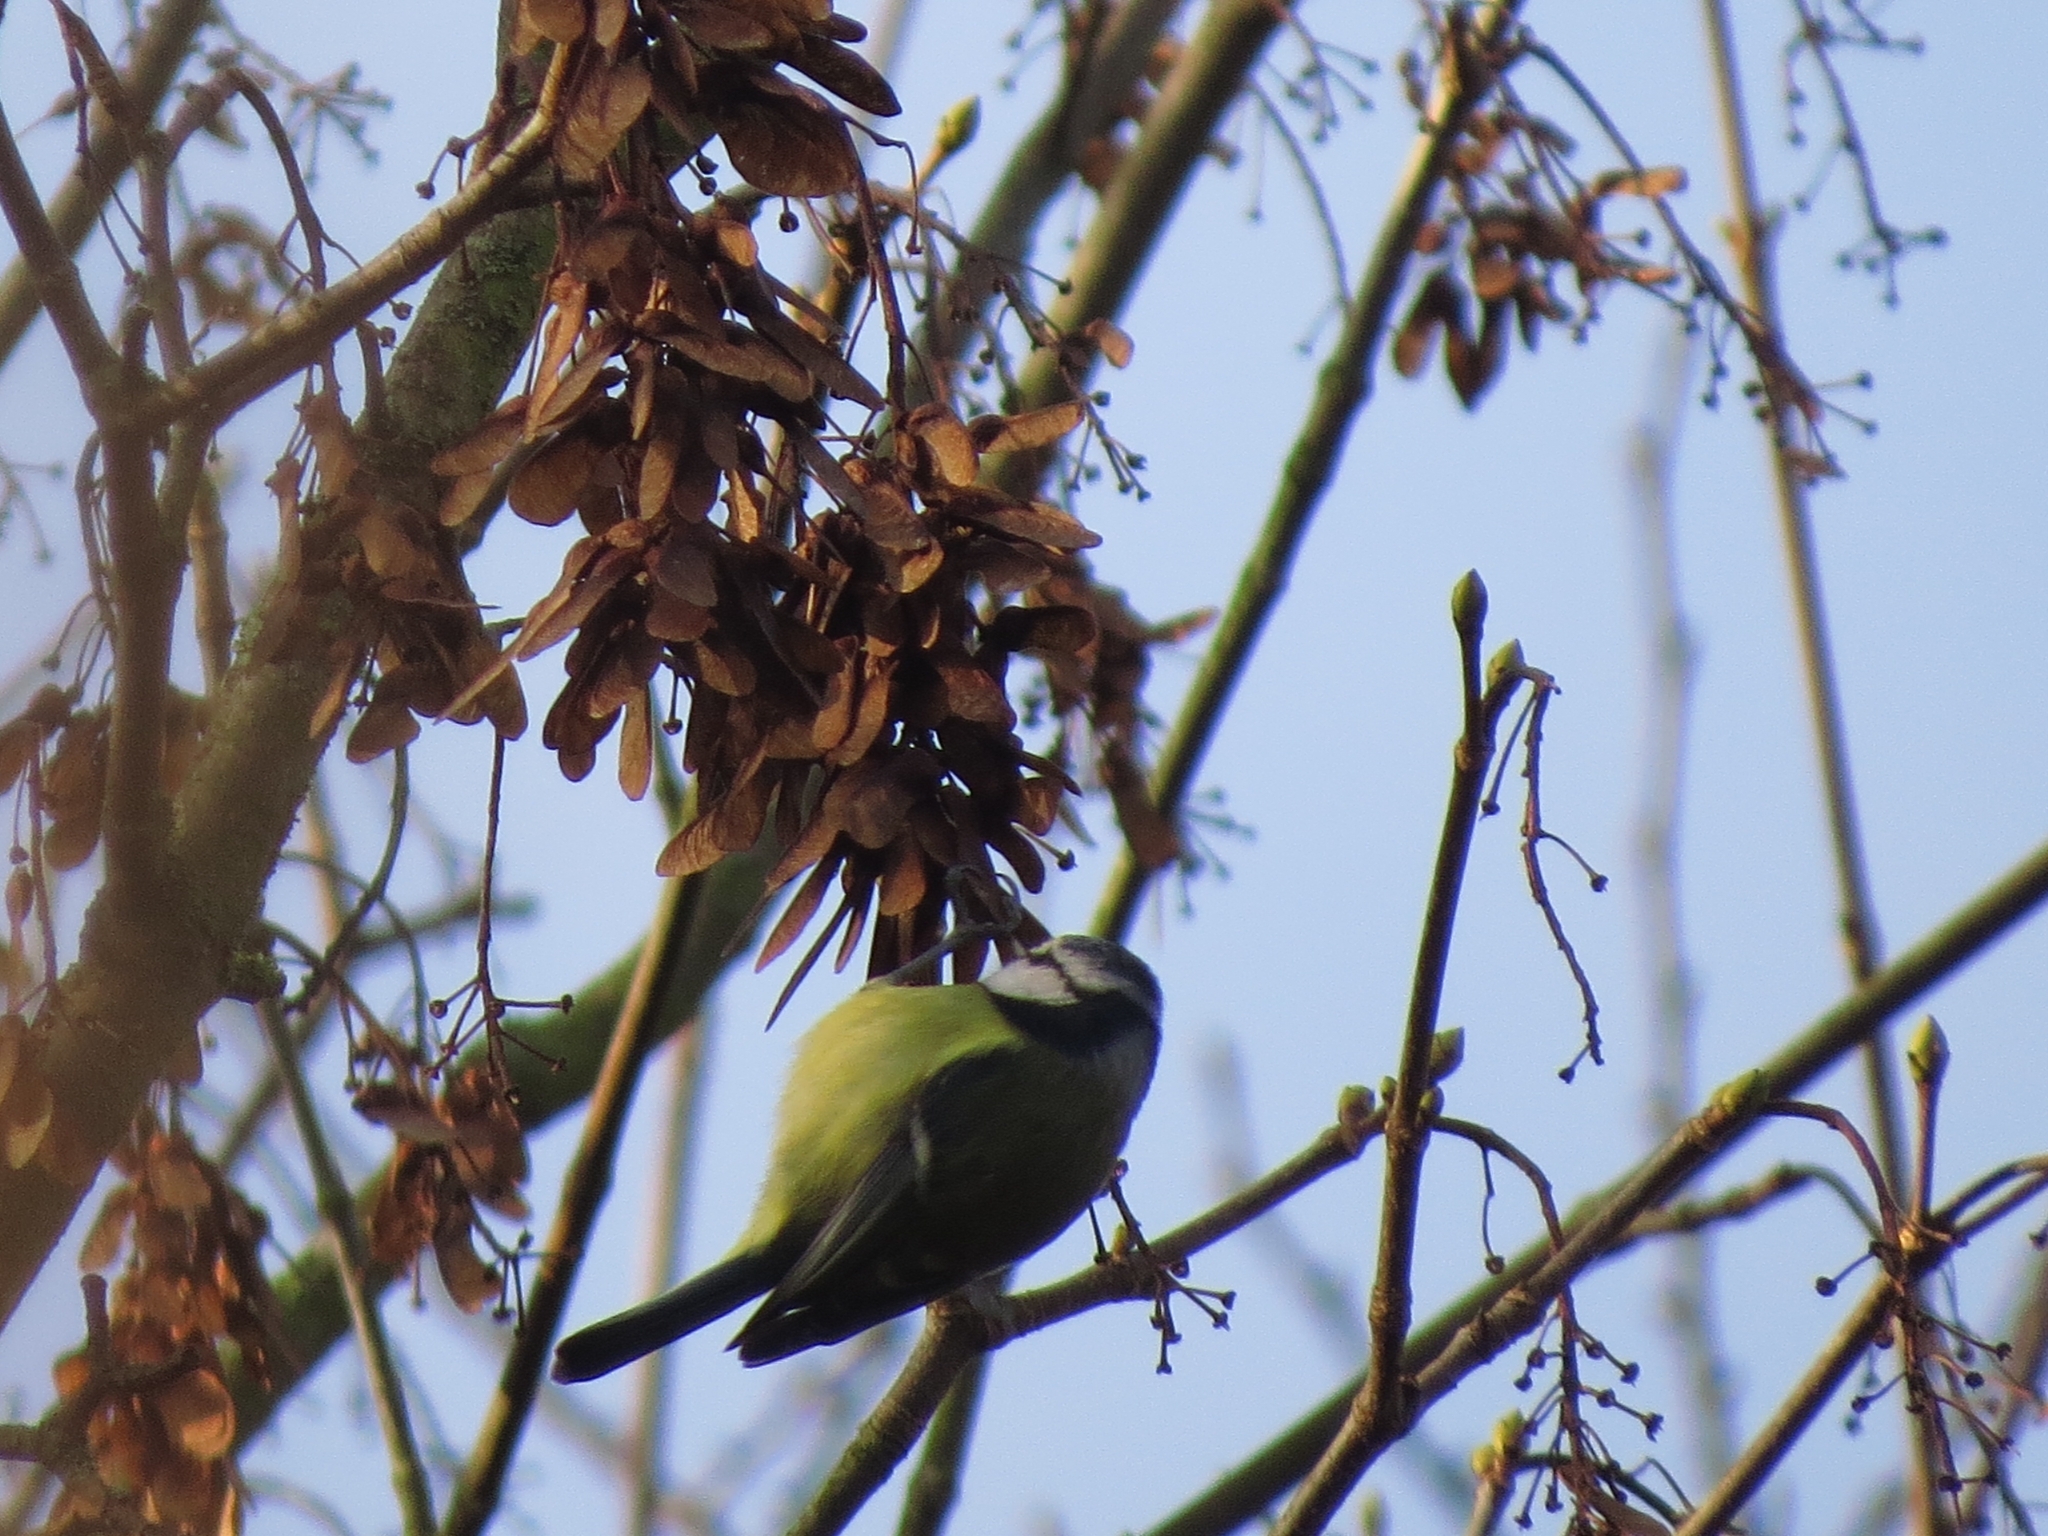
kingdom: Animalia
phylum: Chordata
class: Aves
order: Passeriformes
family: Paridae
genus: Cyanistes
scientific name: Cyanistes caeruleus
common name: Eurasian blue tit
